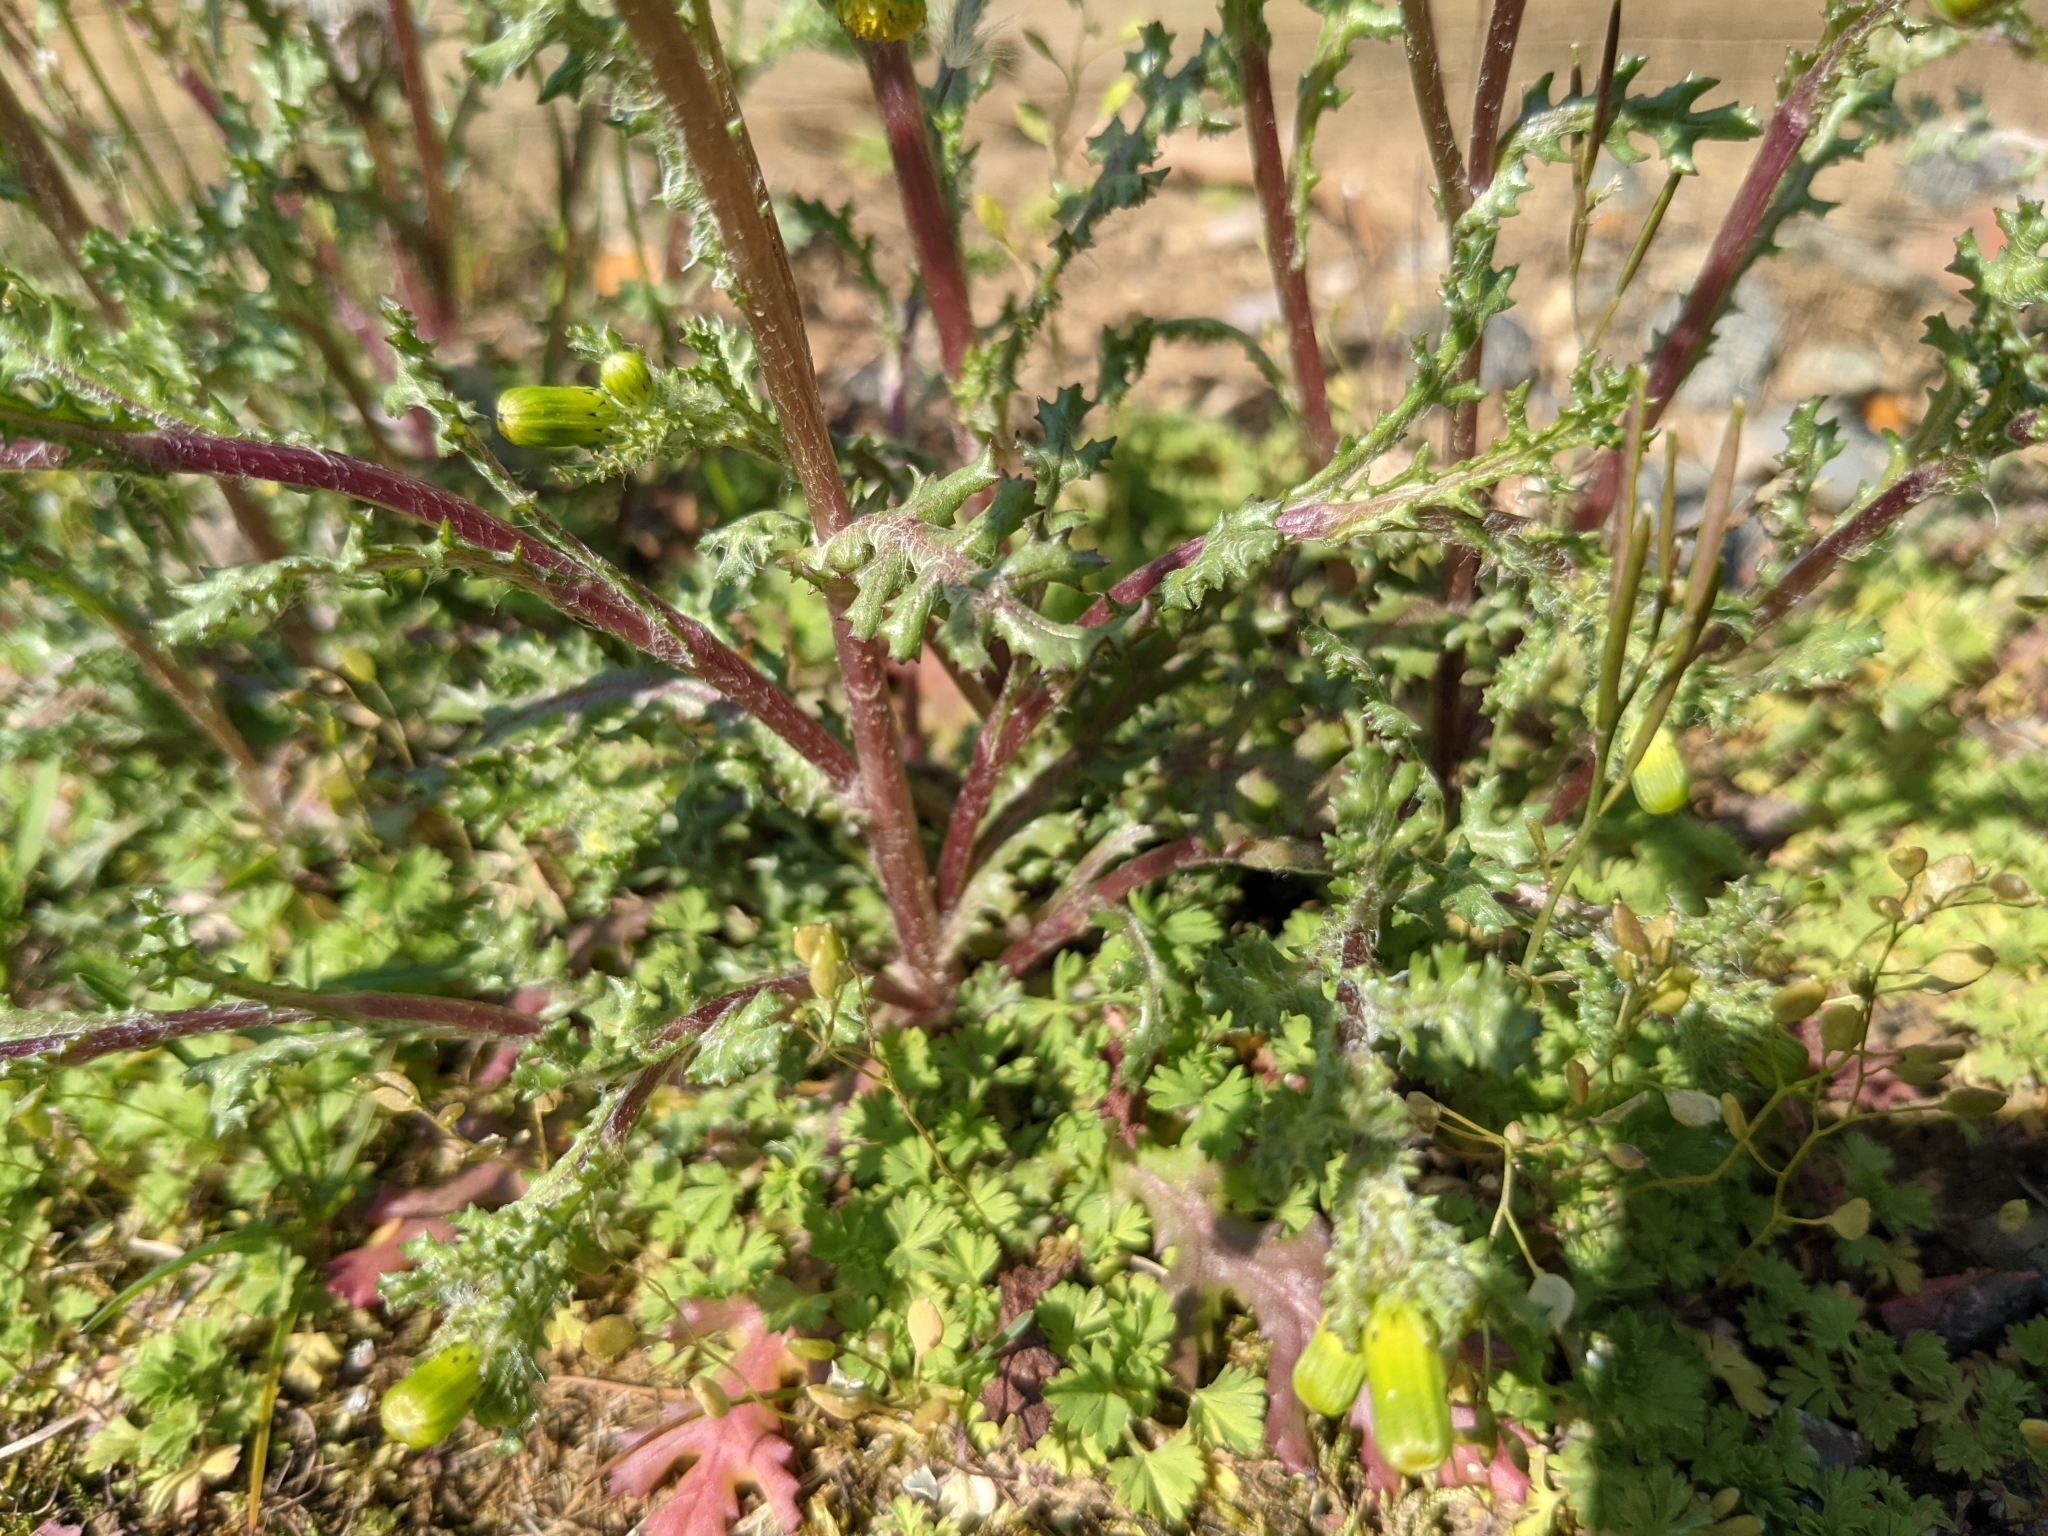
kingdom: Plantae
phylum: Tracheophyta
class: Magnoliopsida
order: Asterales
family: Asteraceae
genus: Senecio
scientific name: Senecio vulgaris
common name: Old-man-in-the-spring
